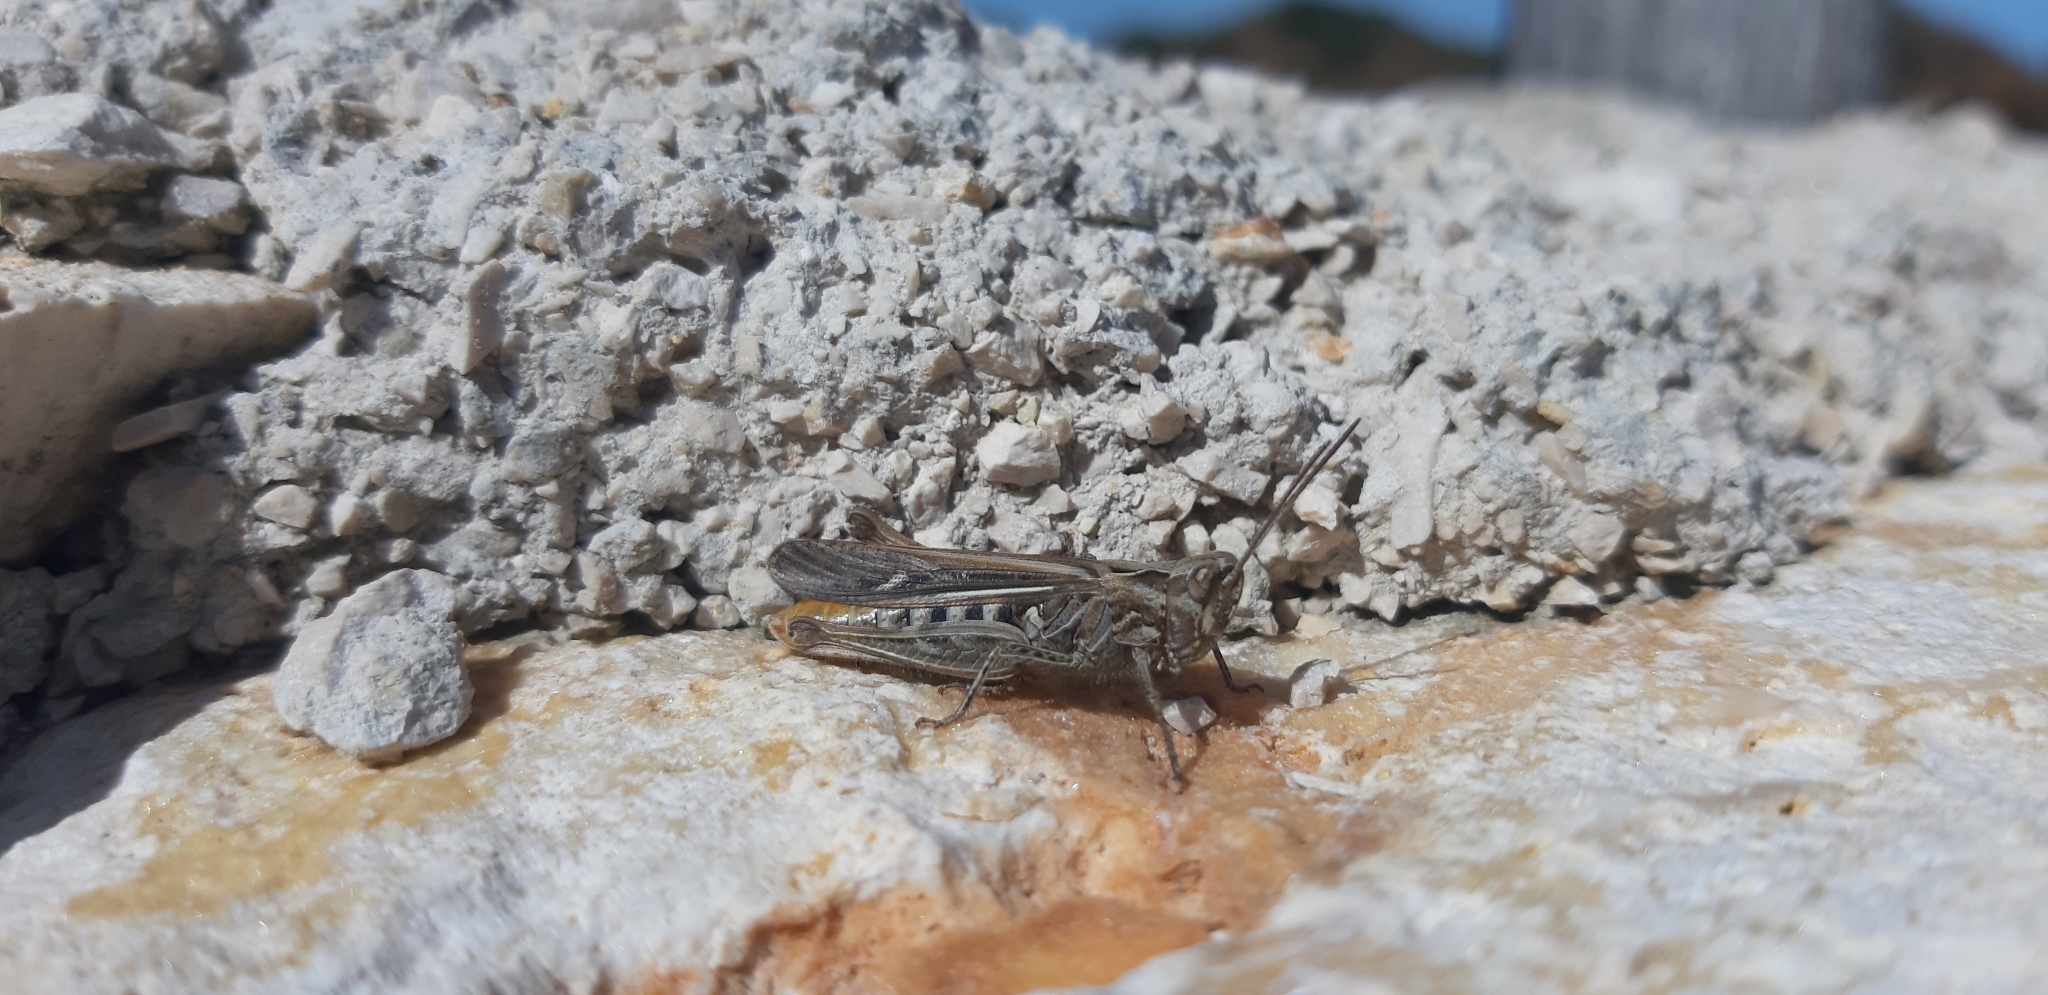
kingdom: Animalia
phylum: Arthropoda
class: Insecta
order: Orthoptera
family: Acrididae
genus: Chorthippus
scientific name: Chorthippus brunneus
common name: Field grasshopper
